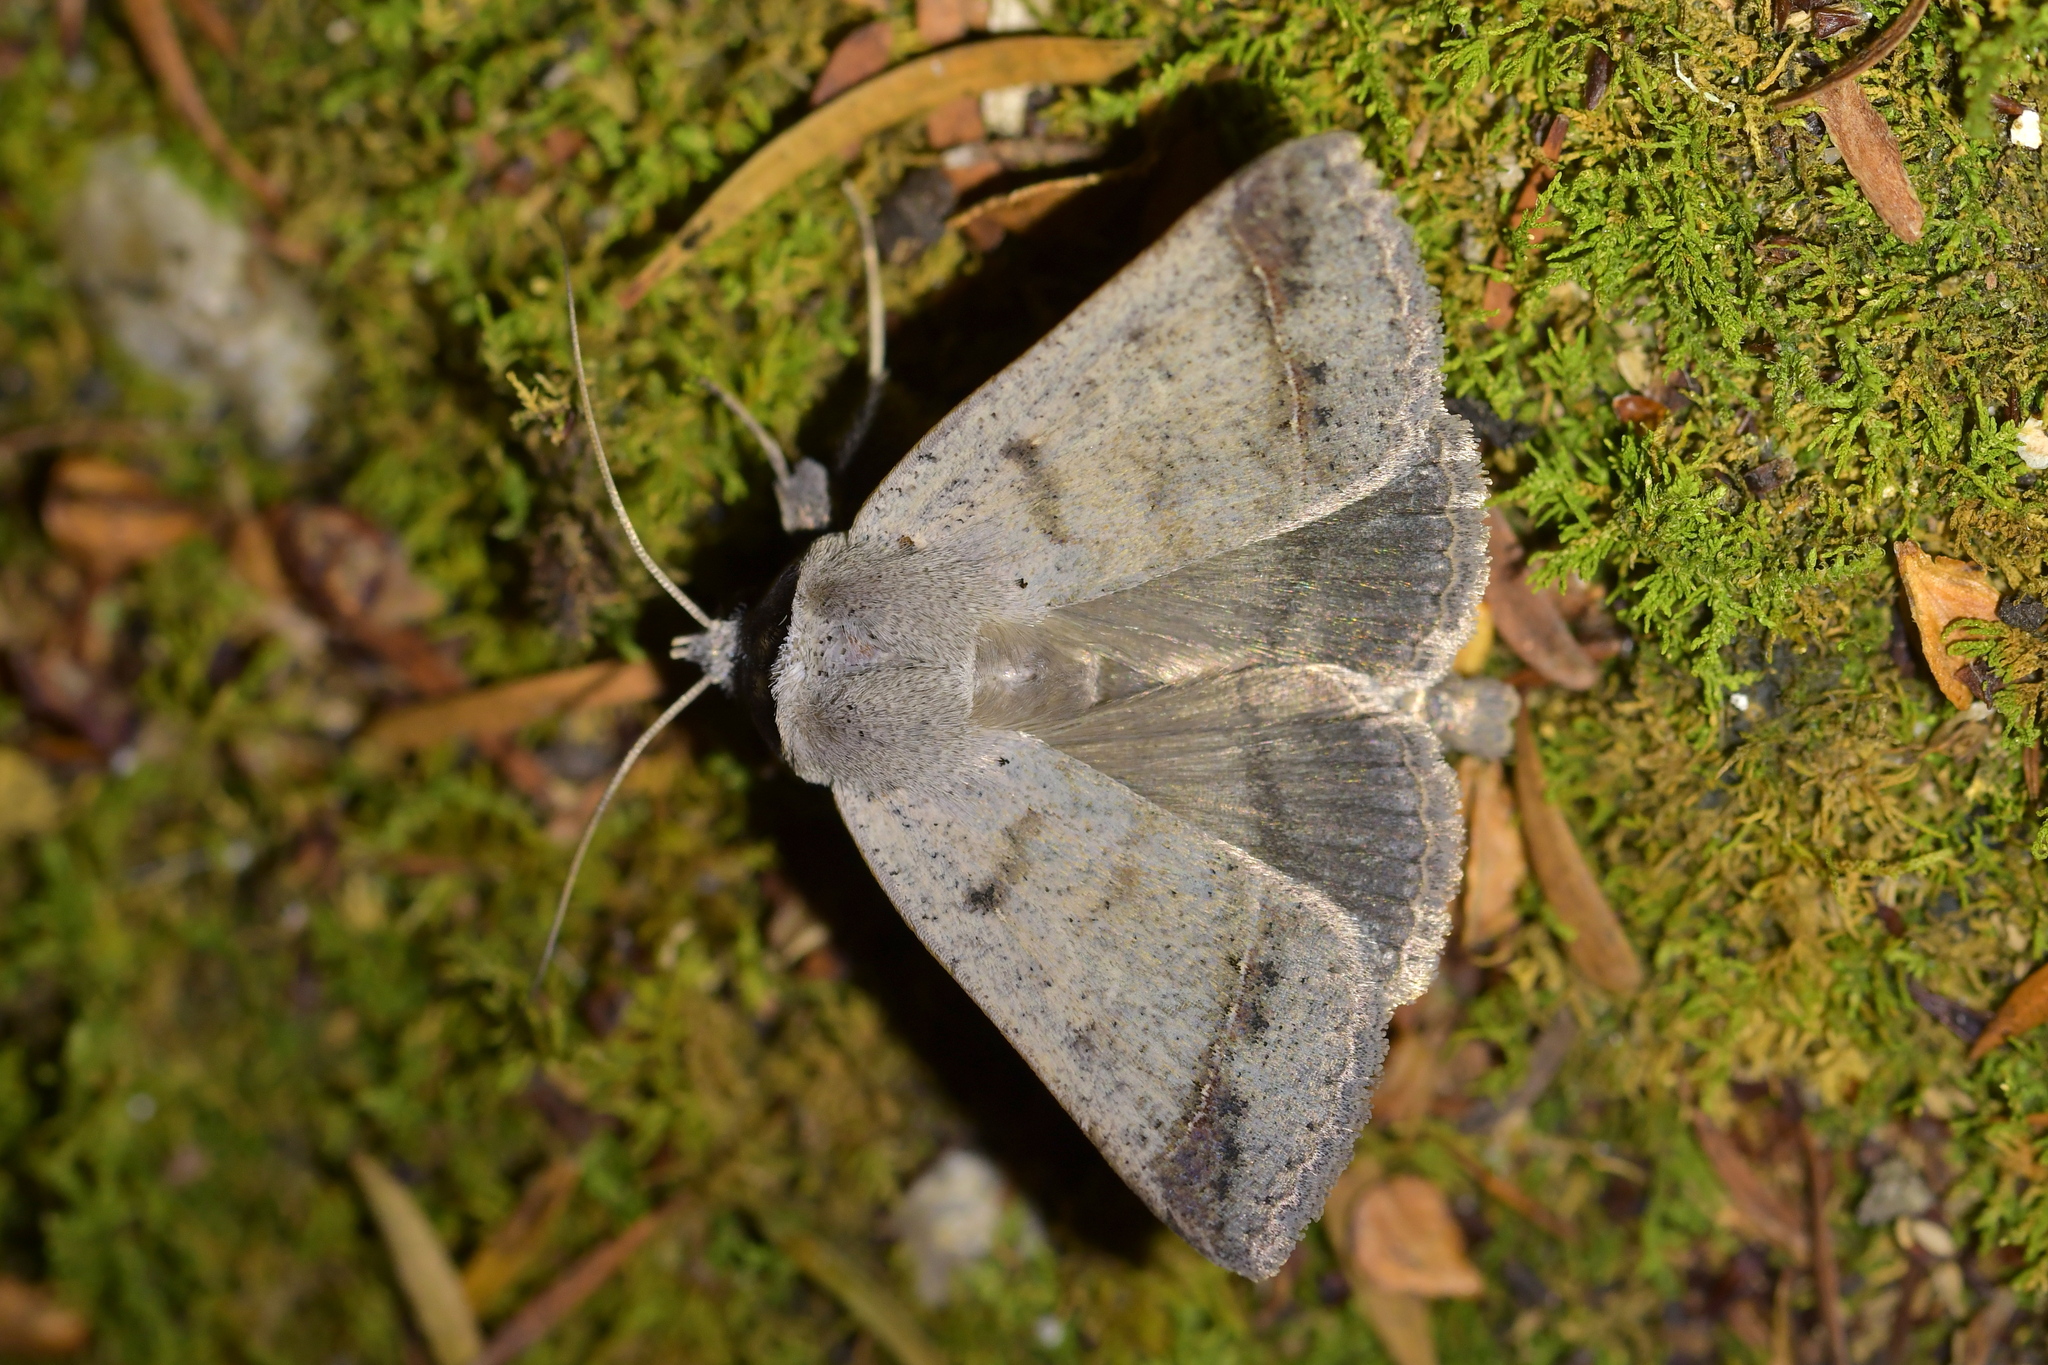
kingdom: Animalia
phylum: Arthropoda
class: Insecta
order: Lepidoptera
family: Erebidae
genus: Pantydia
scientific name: Pantydia sparsa
